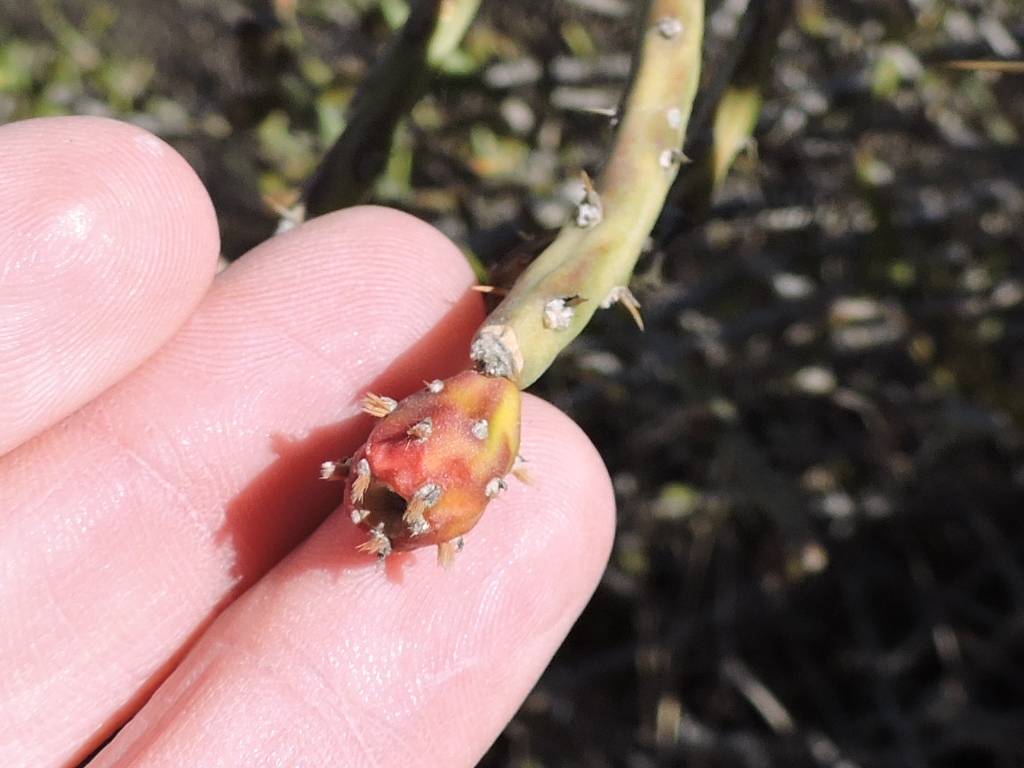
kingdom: Plantae
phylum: Tracheophyta
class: Magnoliopsida
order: Caryophyllales
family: Cactaceae
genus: Cylindropuntia
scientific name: Cylindropuntia leptocaulis
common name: Christmas cactus
